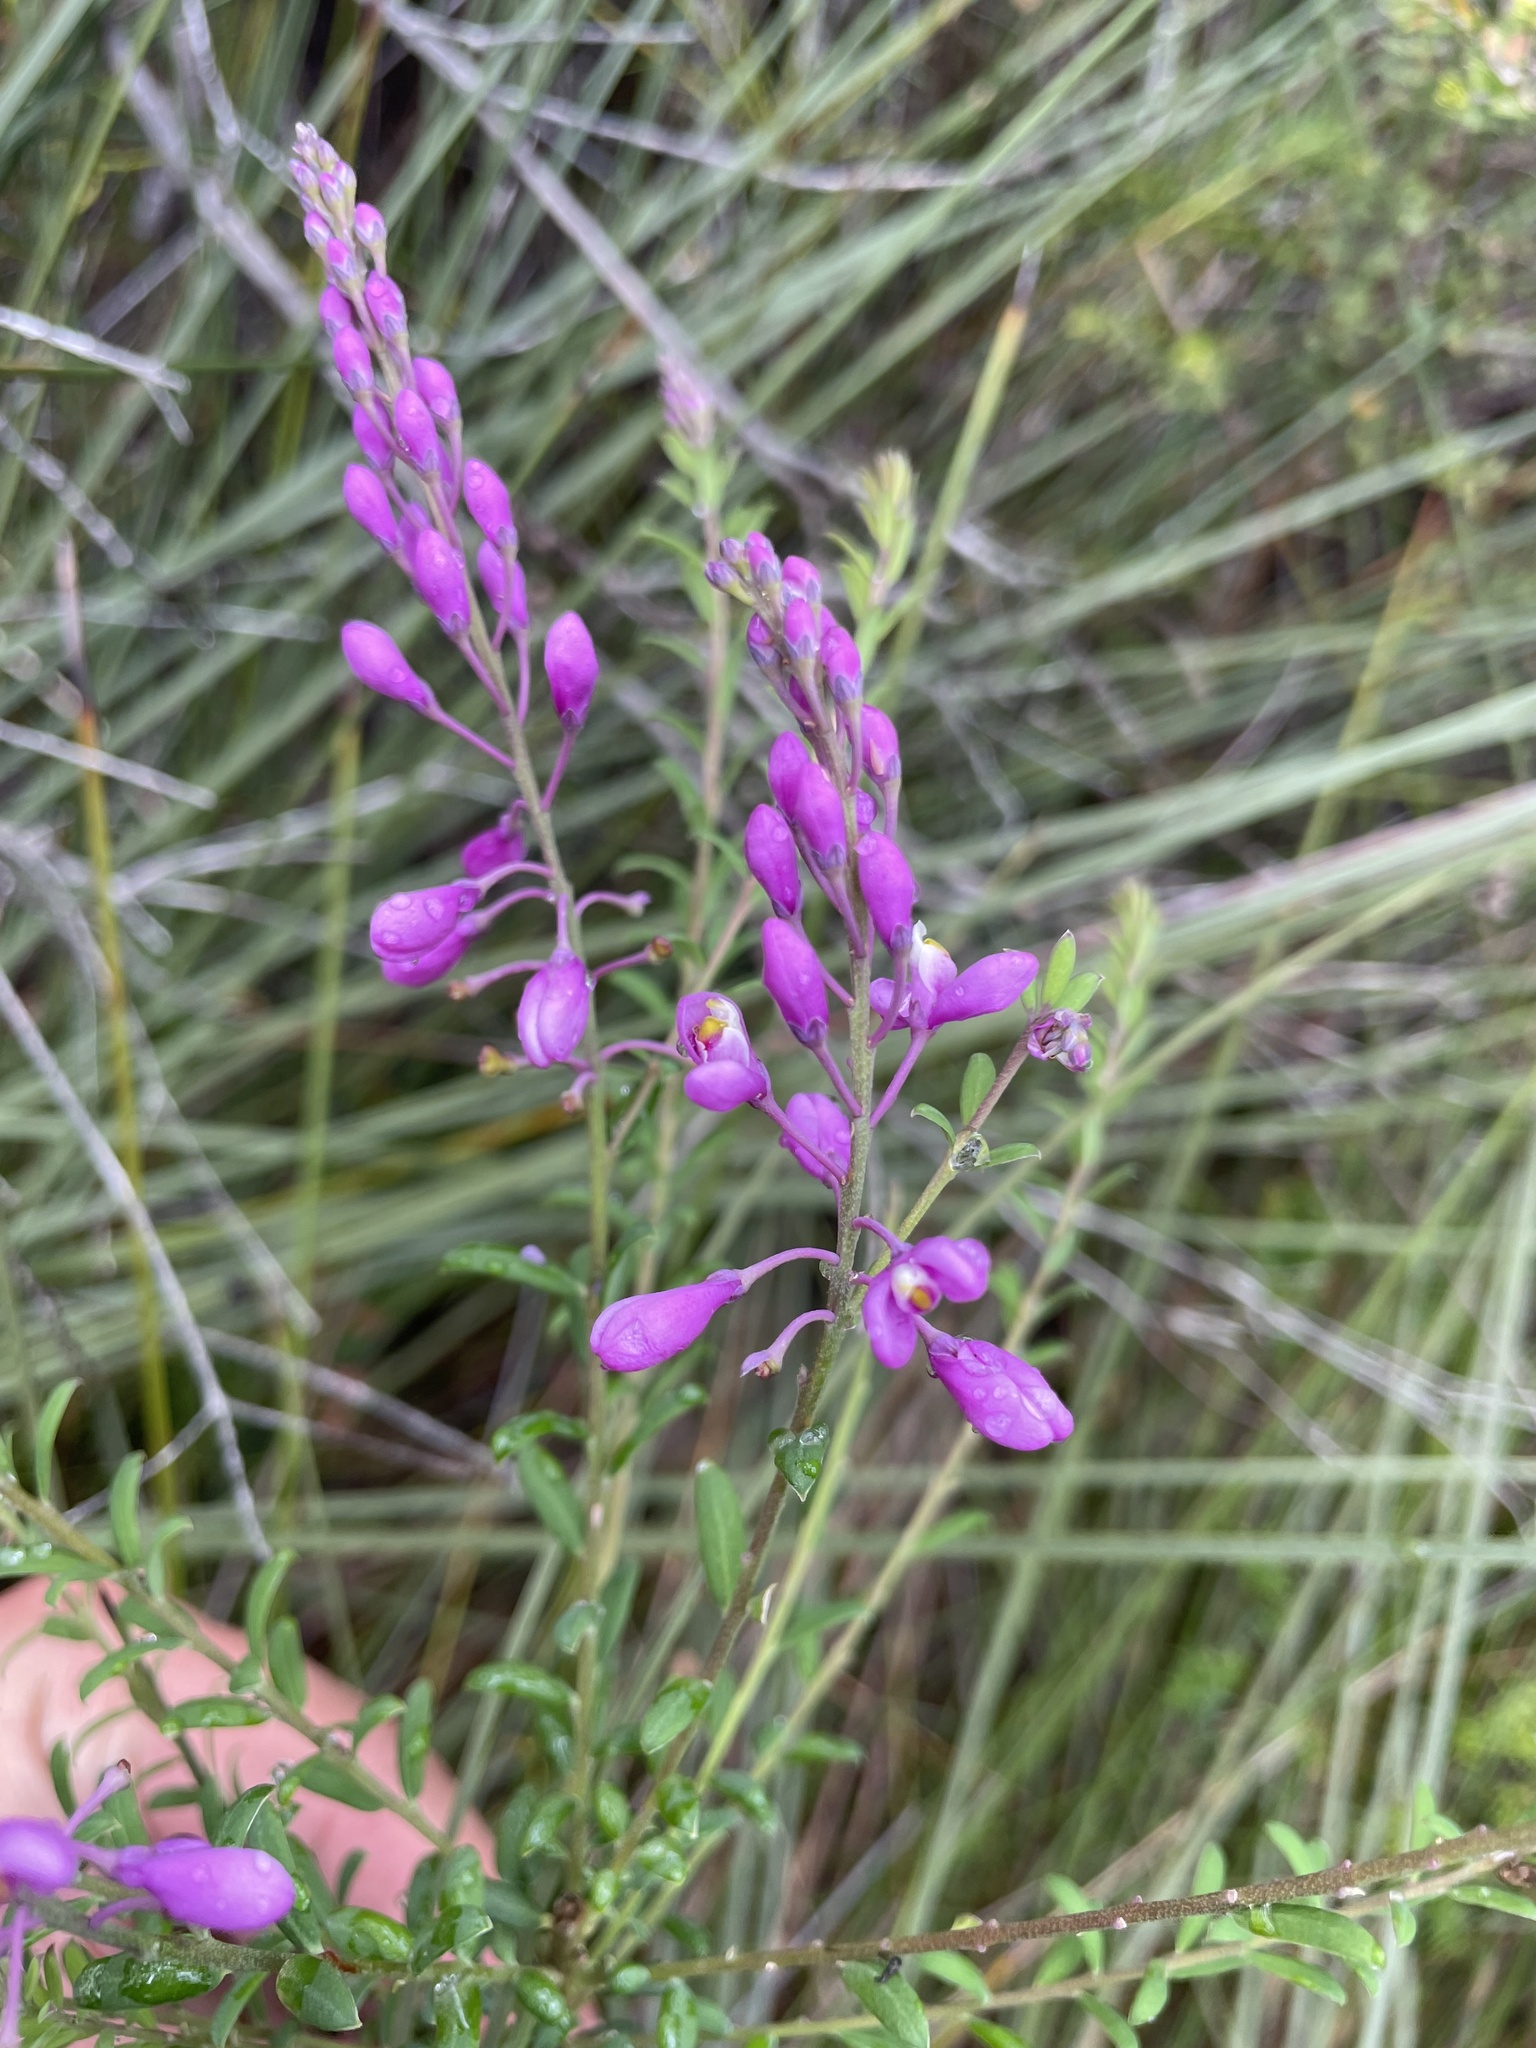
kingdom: Plantae
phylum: Tracheophyta
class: Magnoliopsida
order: Fabales
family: Polygalaceae
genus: Comesperma
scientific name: Comesperma ericinum
